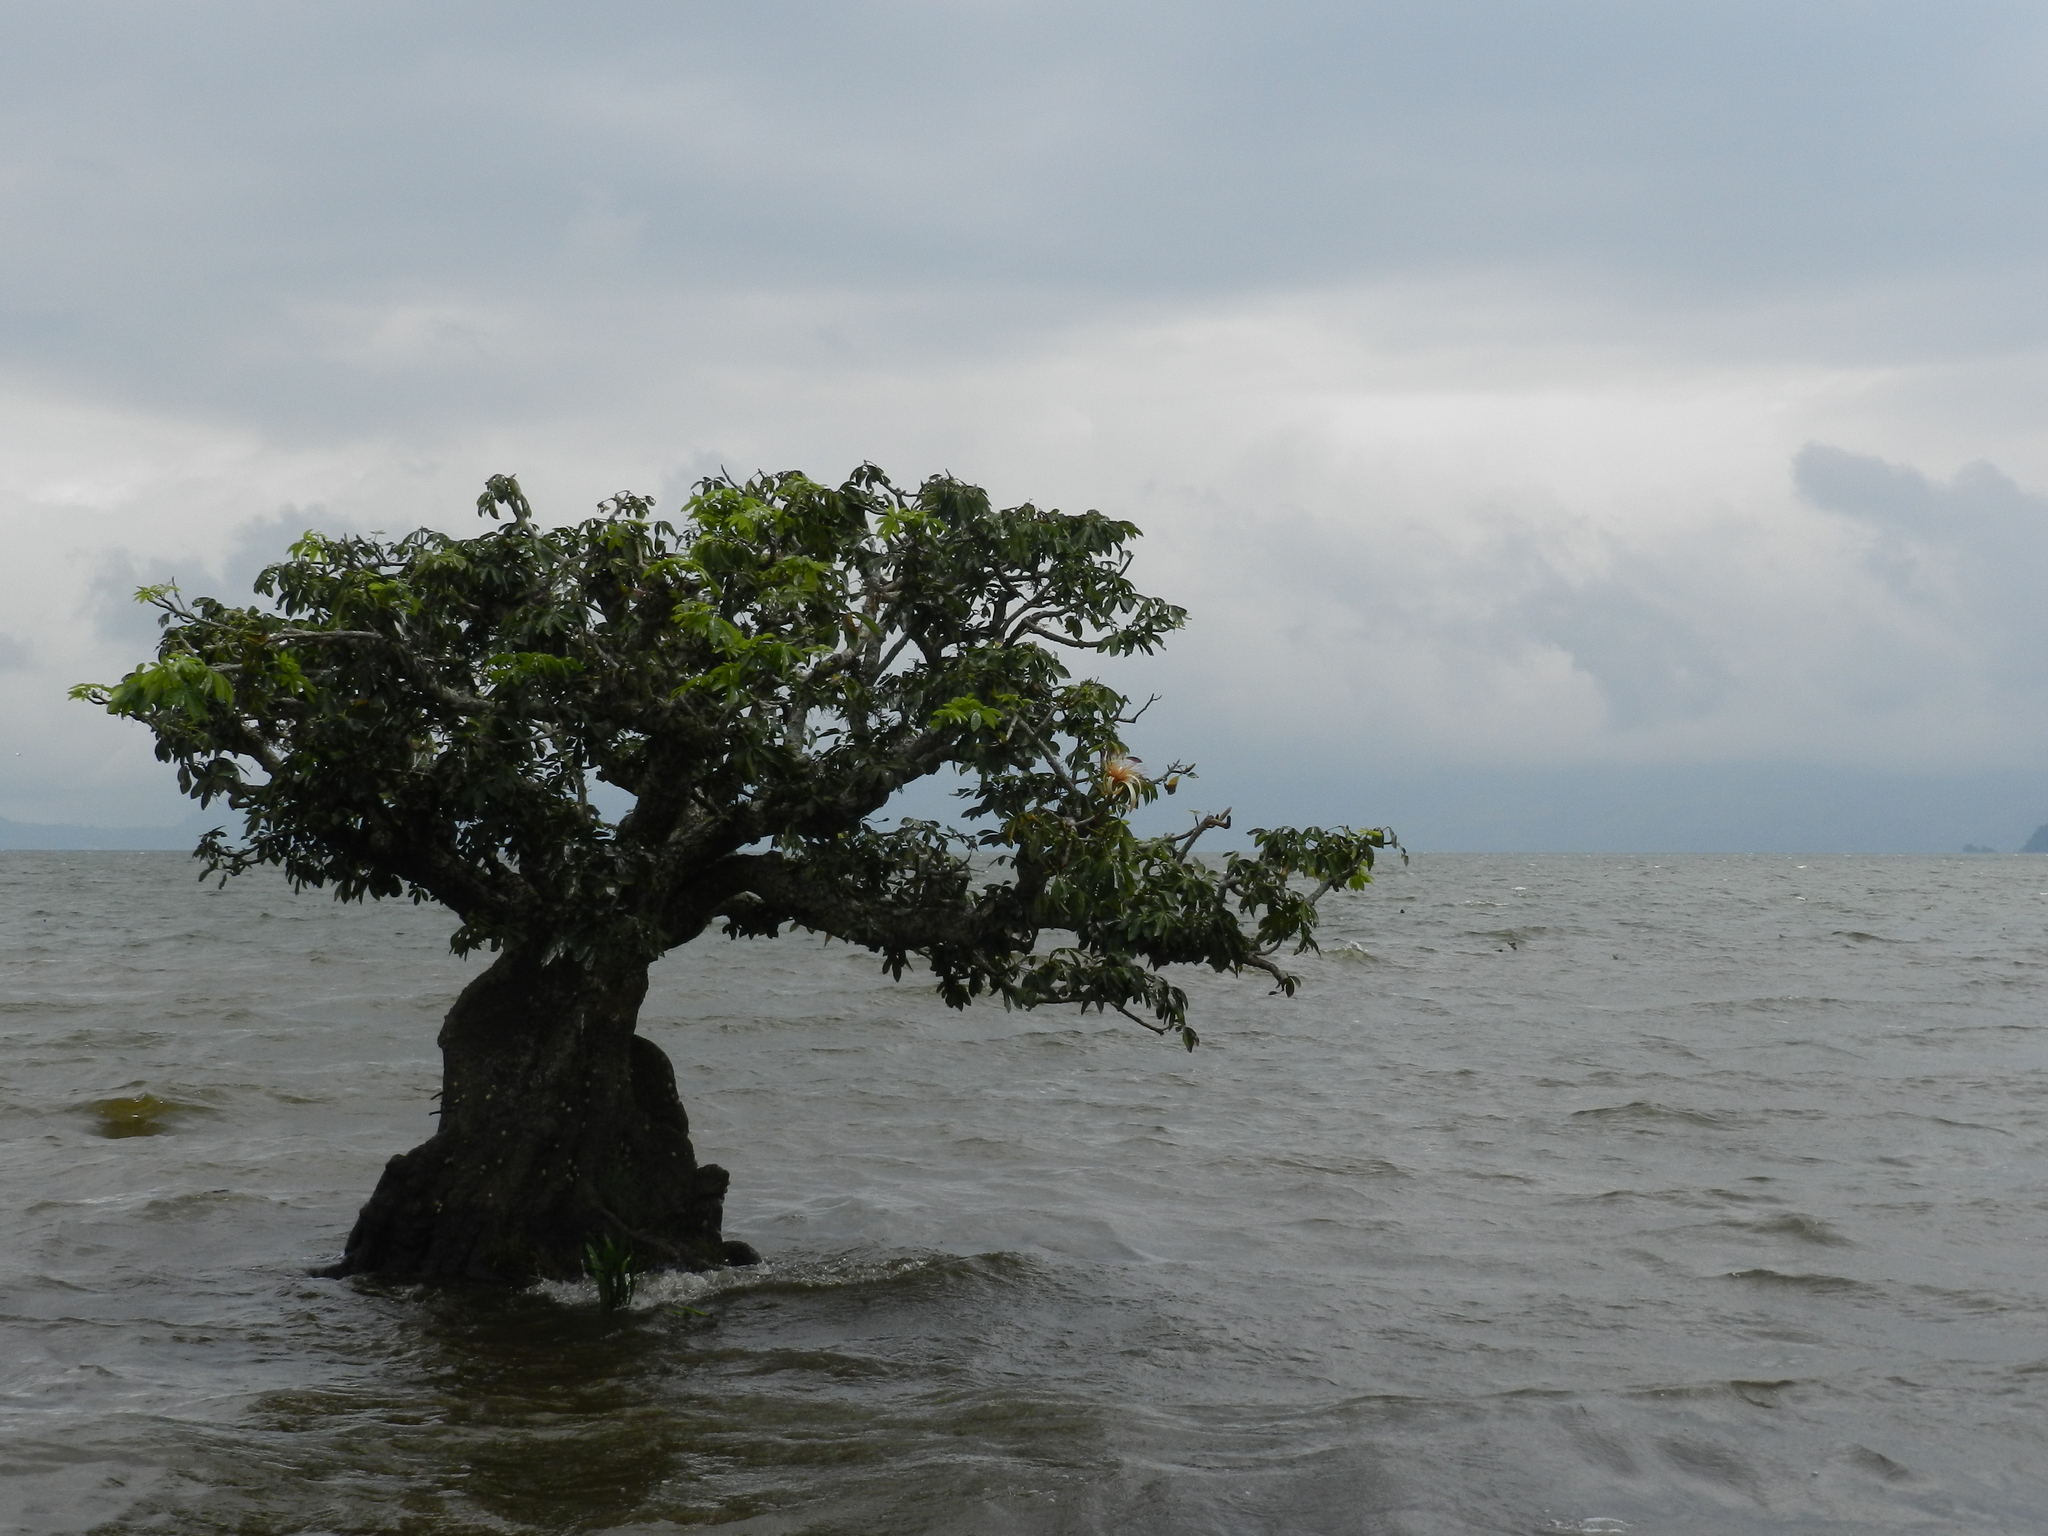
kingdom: Plantae
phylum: Tracheophyta
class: Magnoliopsida
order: Malvales
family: Malvaceae
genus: Pachira
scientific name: Pachira aquatica
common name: Provision-tree
